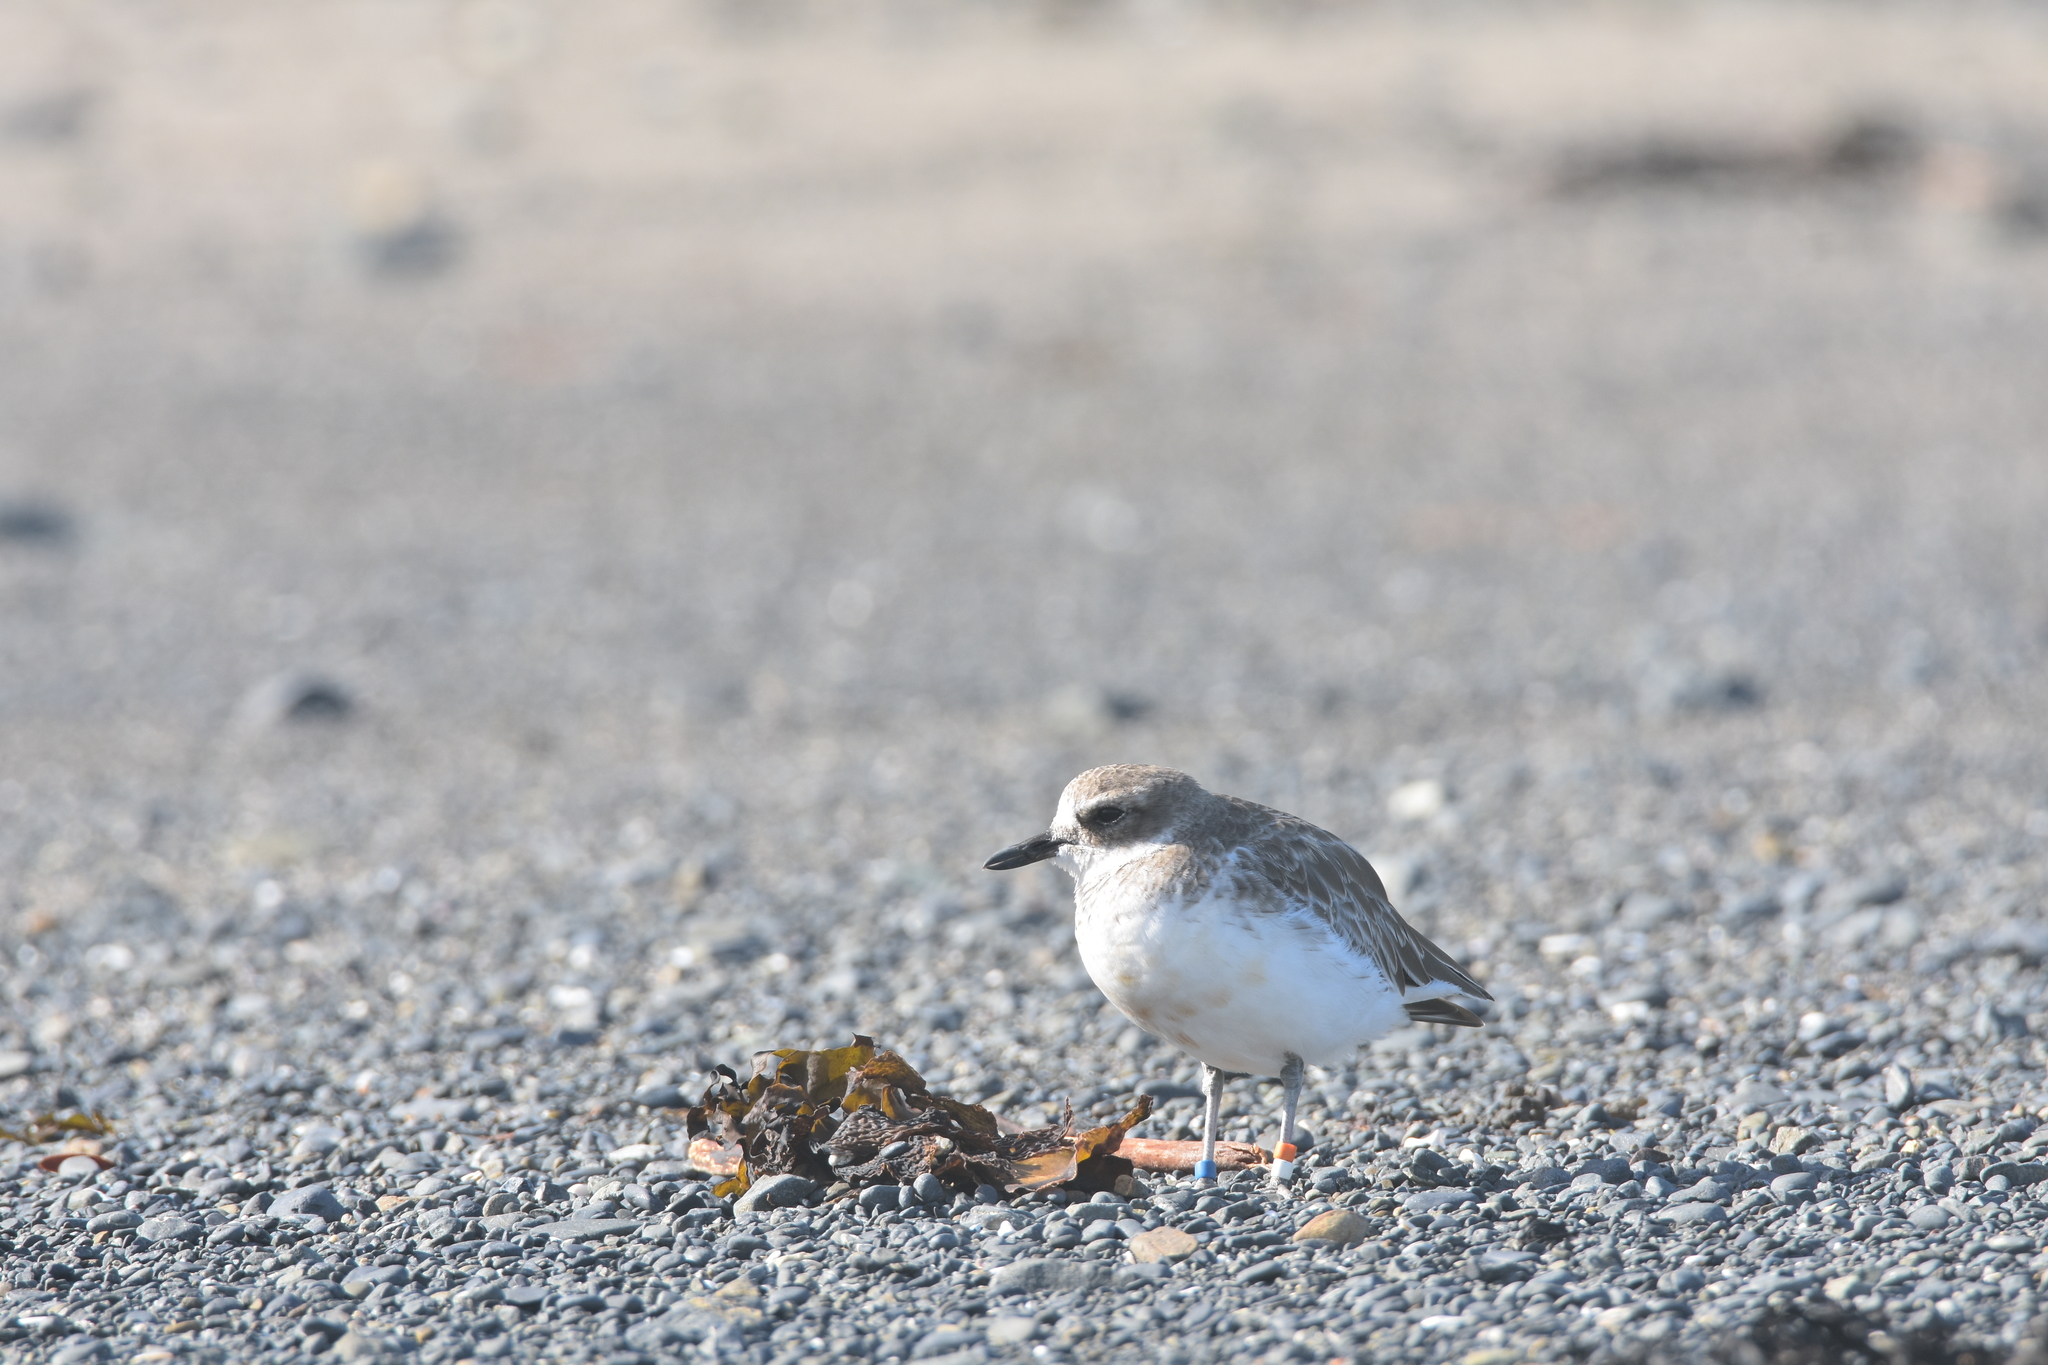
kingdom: Animalia
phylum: Chordata
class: Aves
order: Charadriiformes
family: Charadriidae
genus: Anarhynchus
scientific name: Anarhynchus
